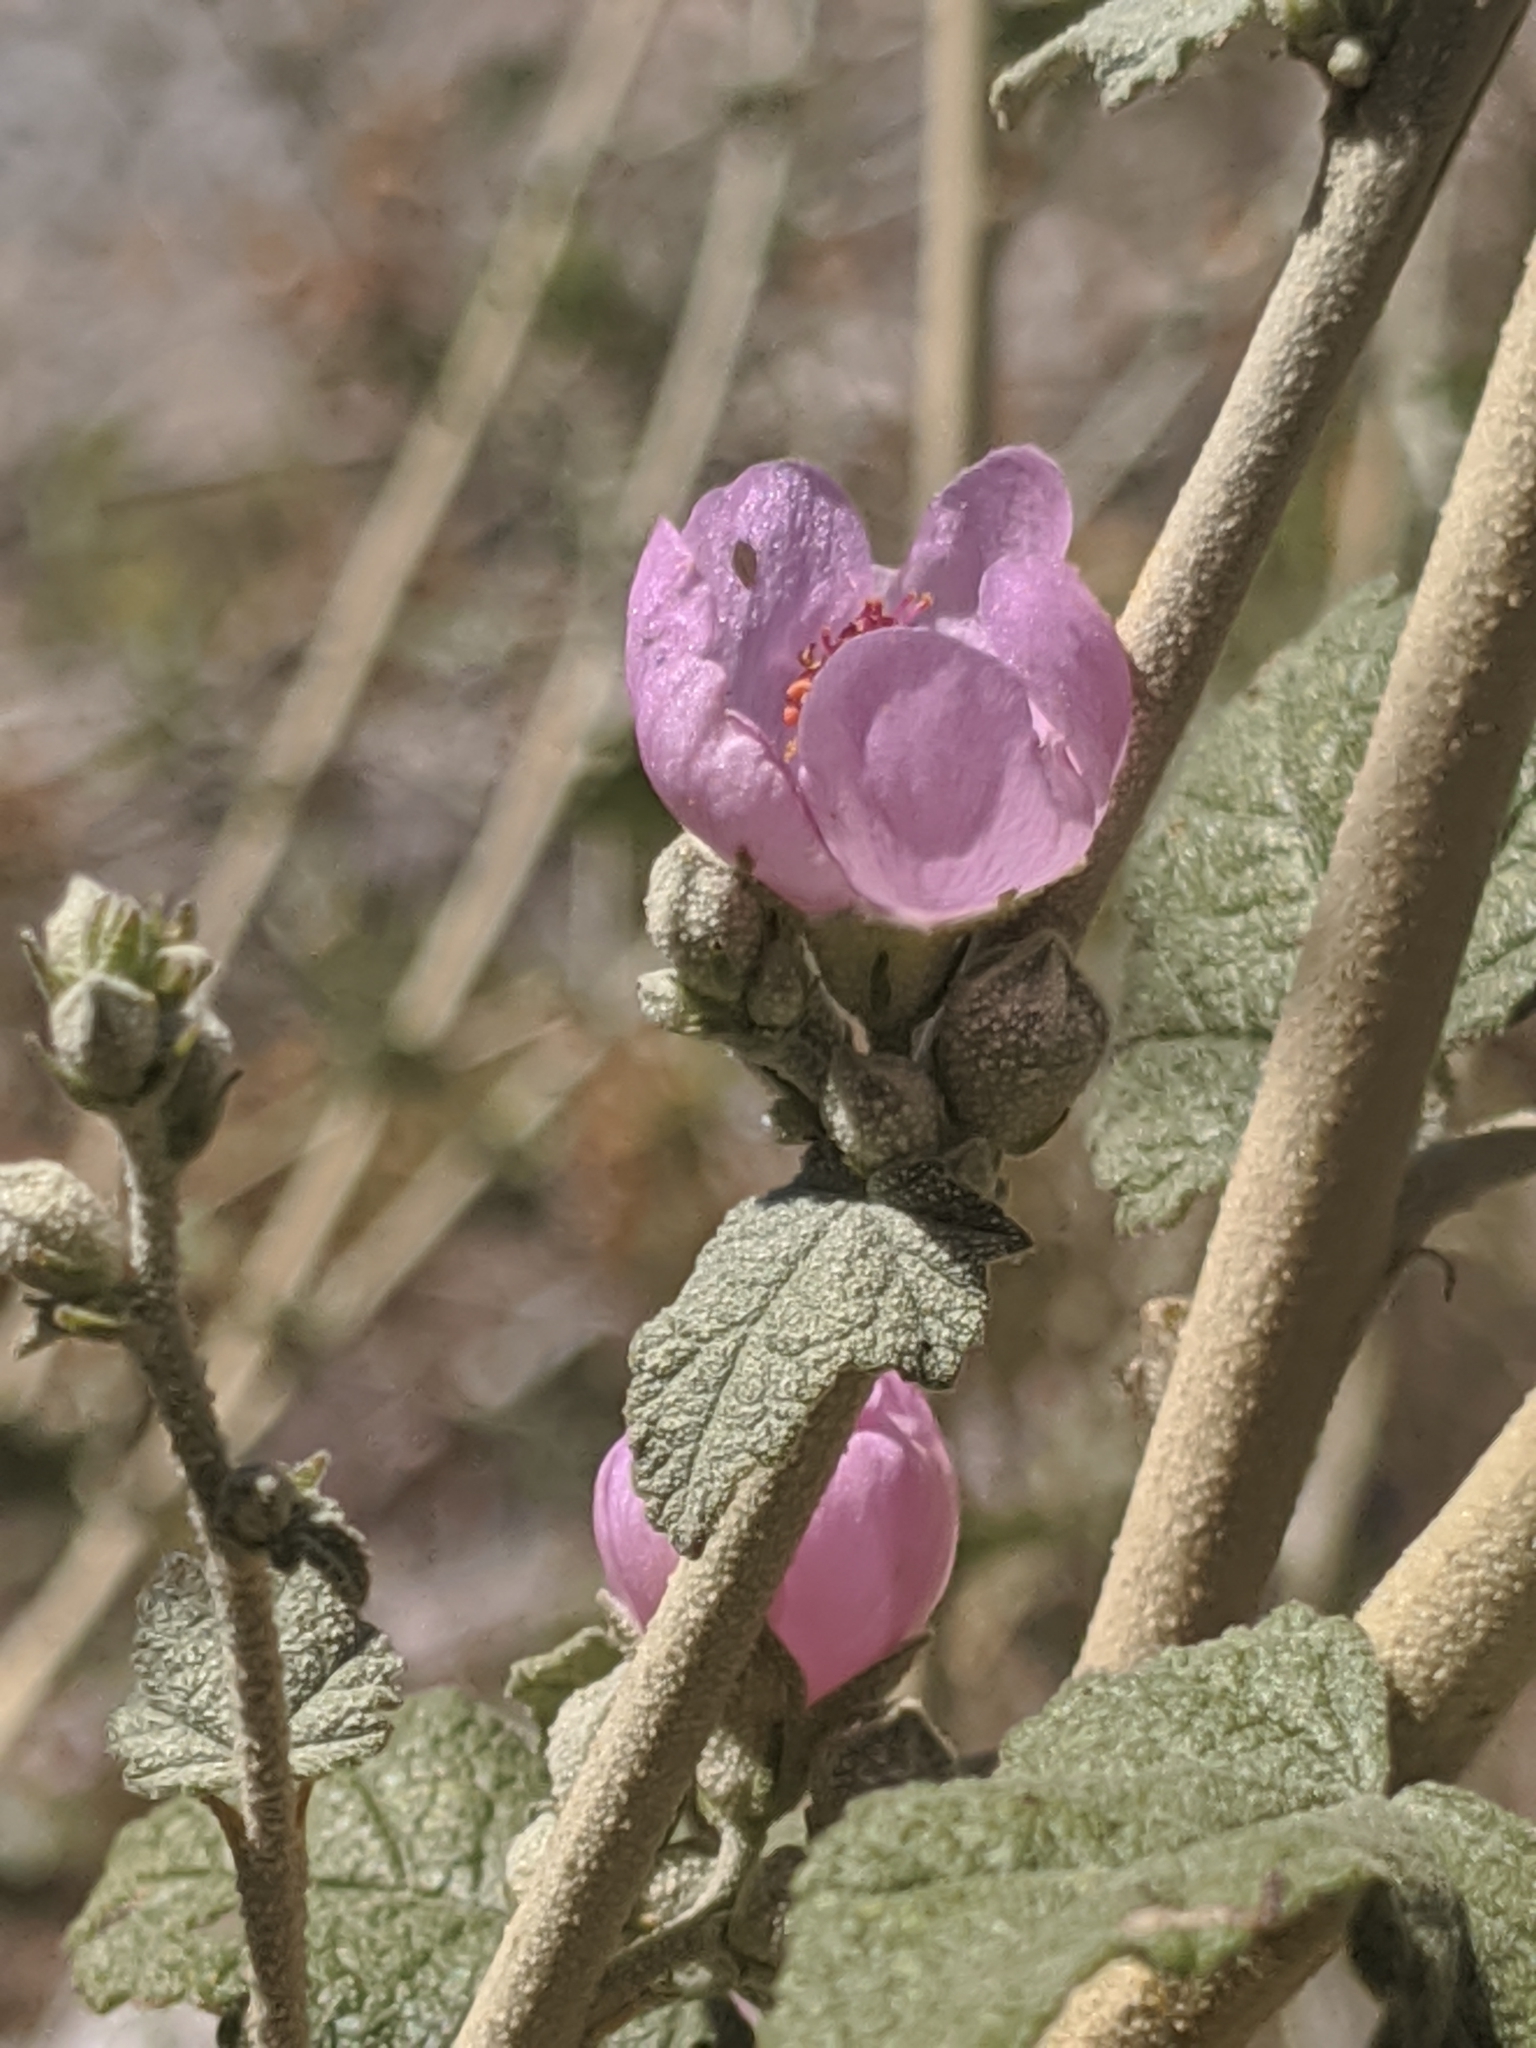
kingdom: Plantae
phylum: Tracheophyta
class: Magnoliopsida
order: Malvales
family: Malvaceae
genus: Malacothamnus
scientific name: Malacothamnus fasciculatus
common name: Sant cruz island bush-mallow
